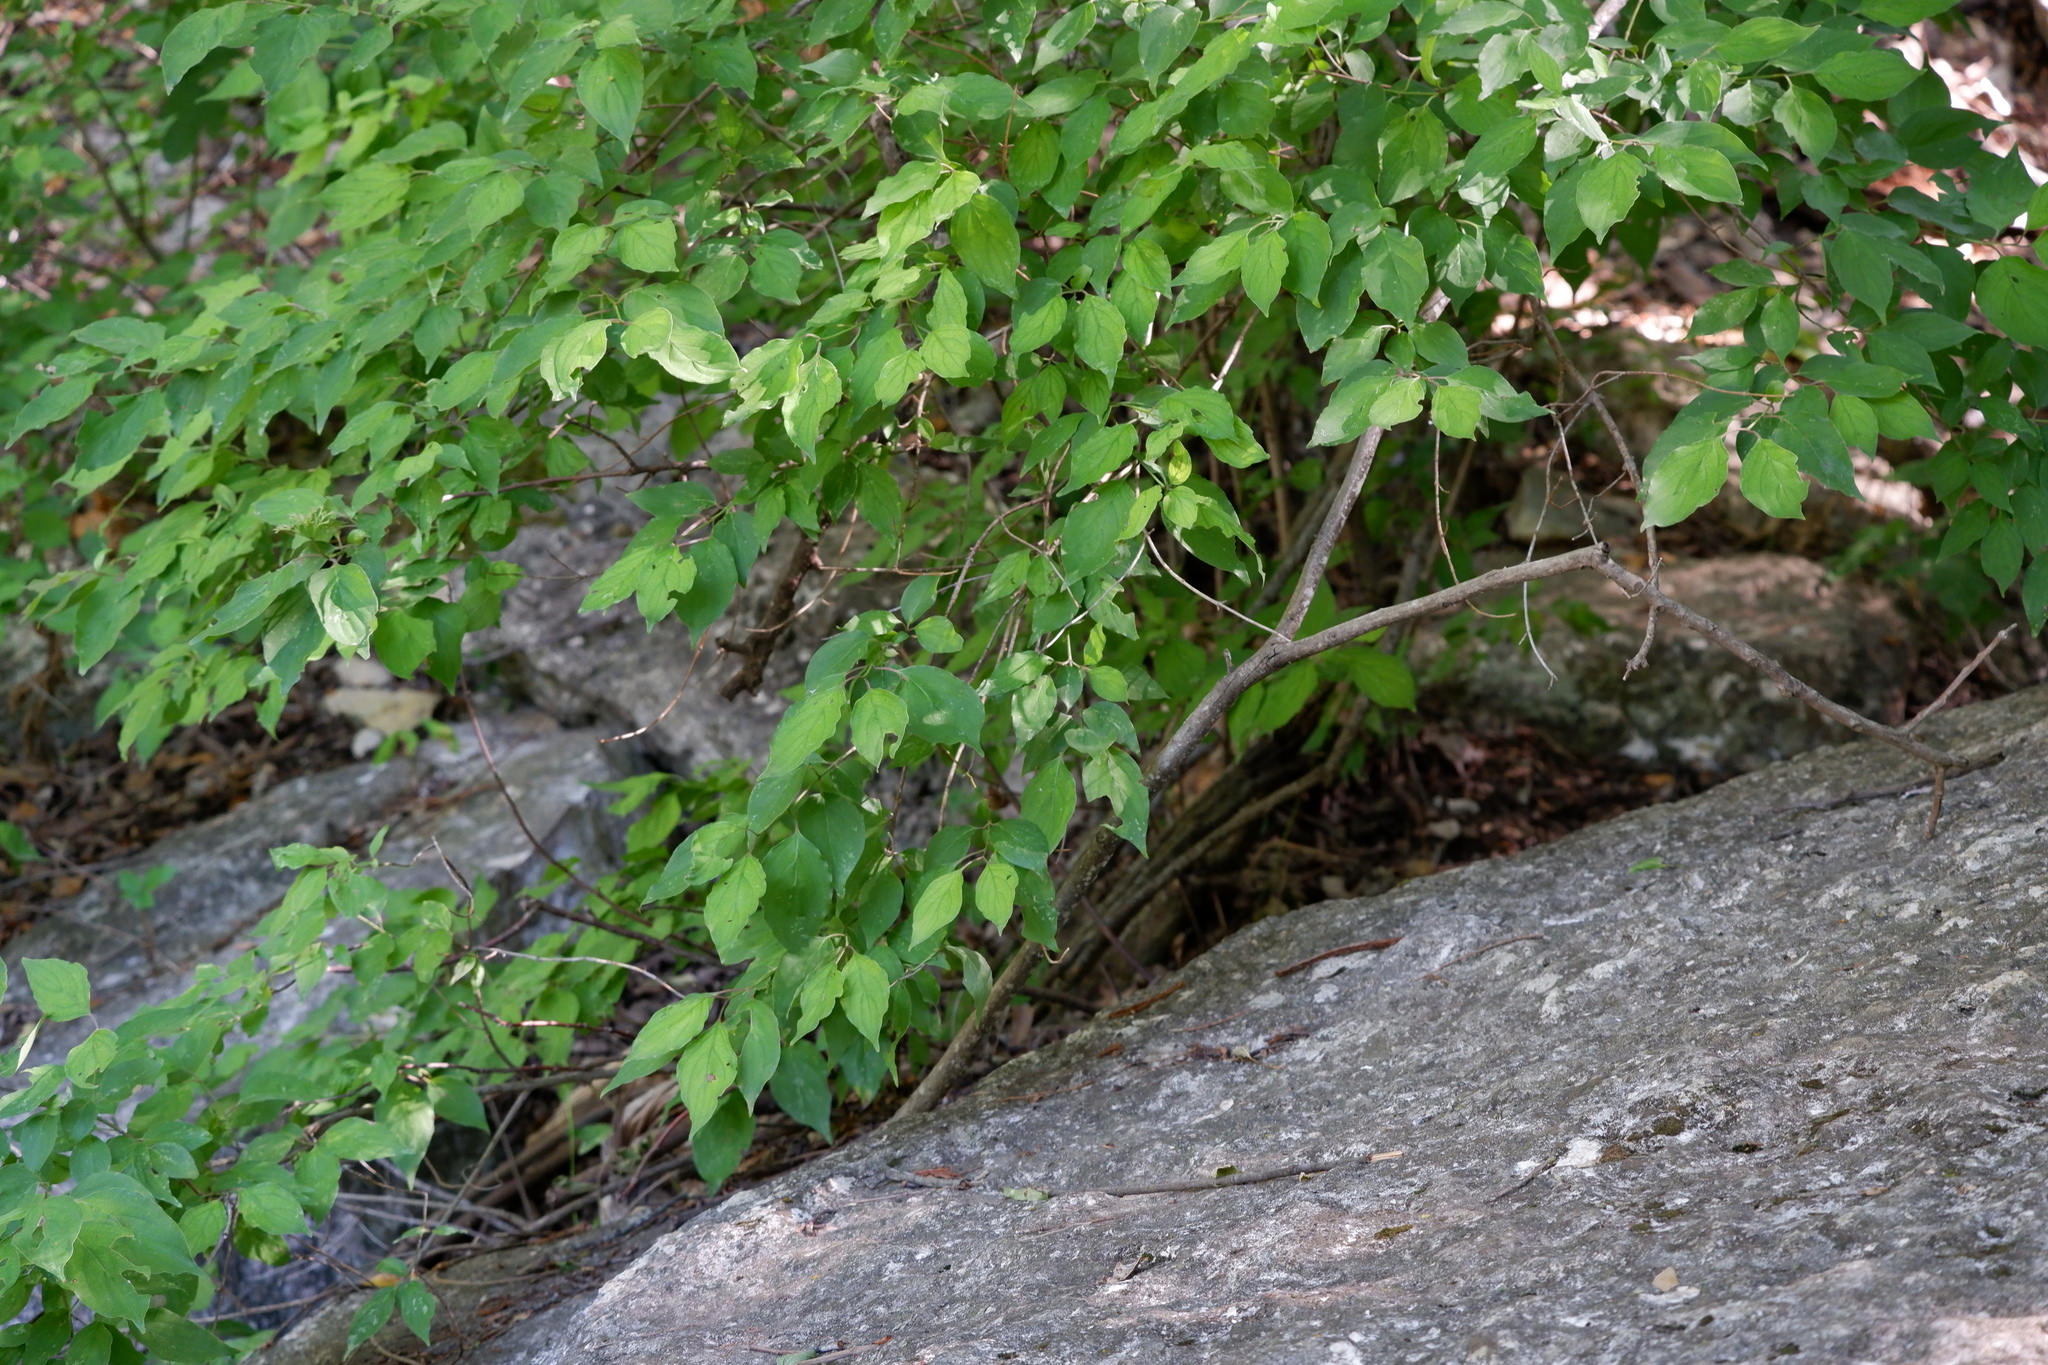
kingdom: Plantae
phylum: Tracheophyta
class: Magnoliopsida
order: Cornales
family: Cornaceae
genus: Cornus
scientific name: Cornus drummondii
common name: Rough-leaf dogwood
